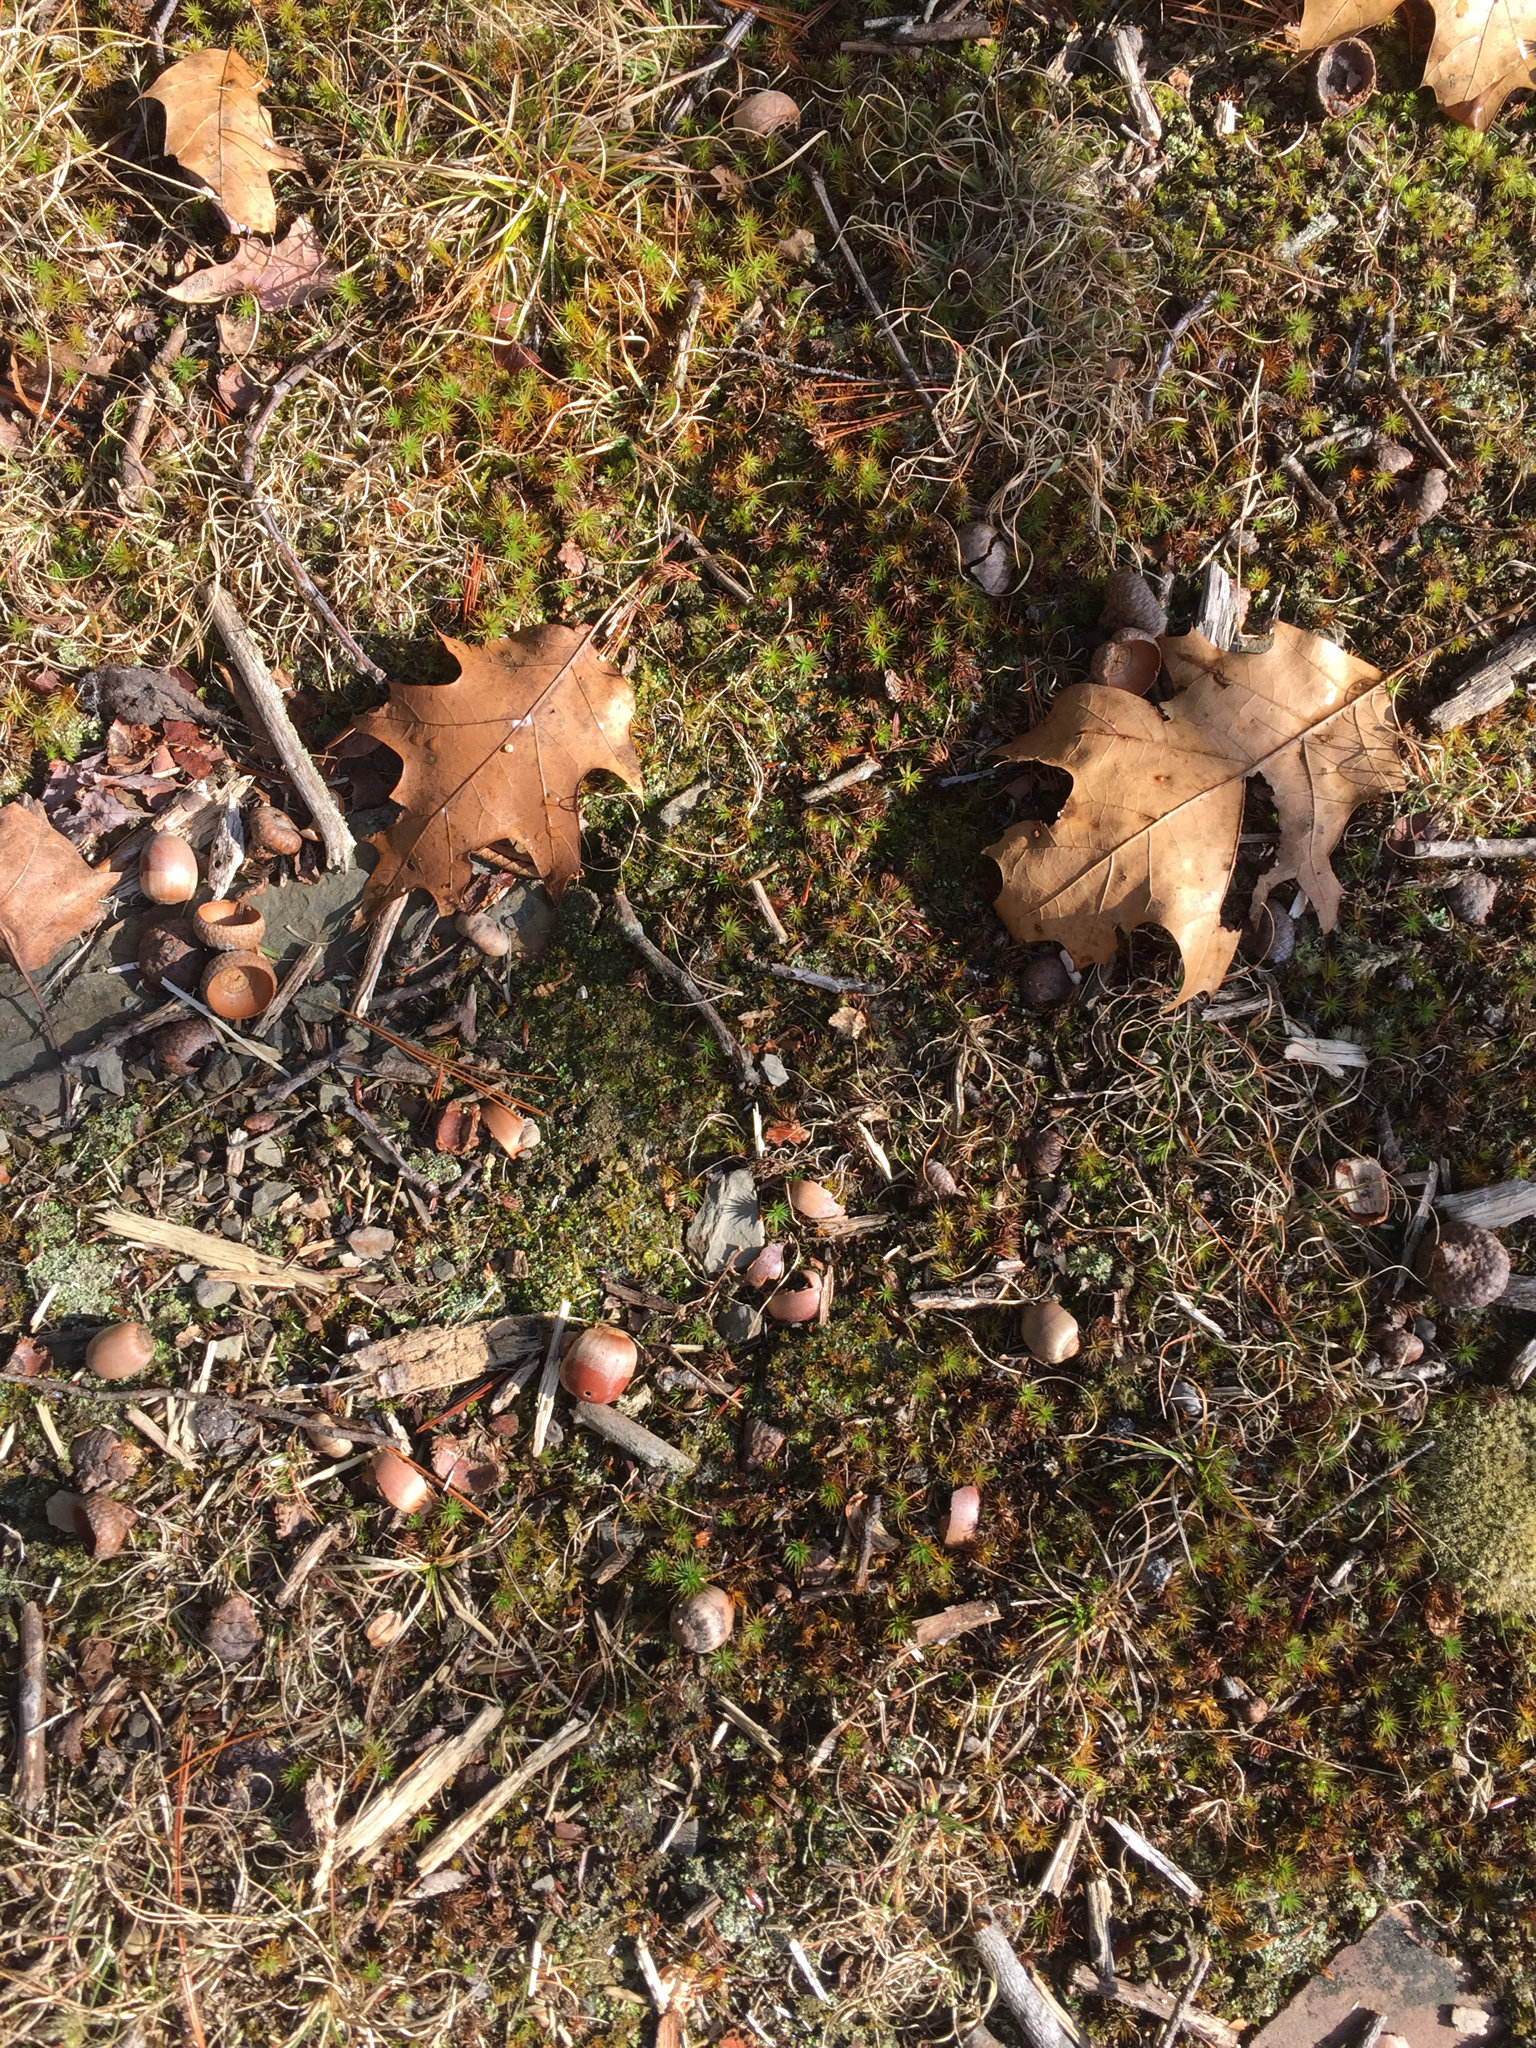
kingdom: Plantae
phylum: Tracheophyta
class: Magnoliopsida
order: Fagales
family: Fagaceae
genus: Quercus
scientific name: Quercus rubra
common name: Red oak
